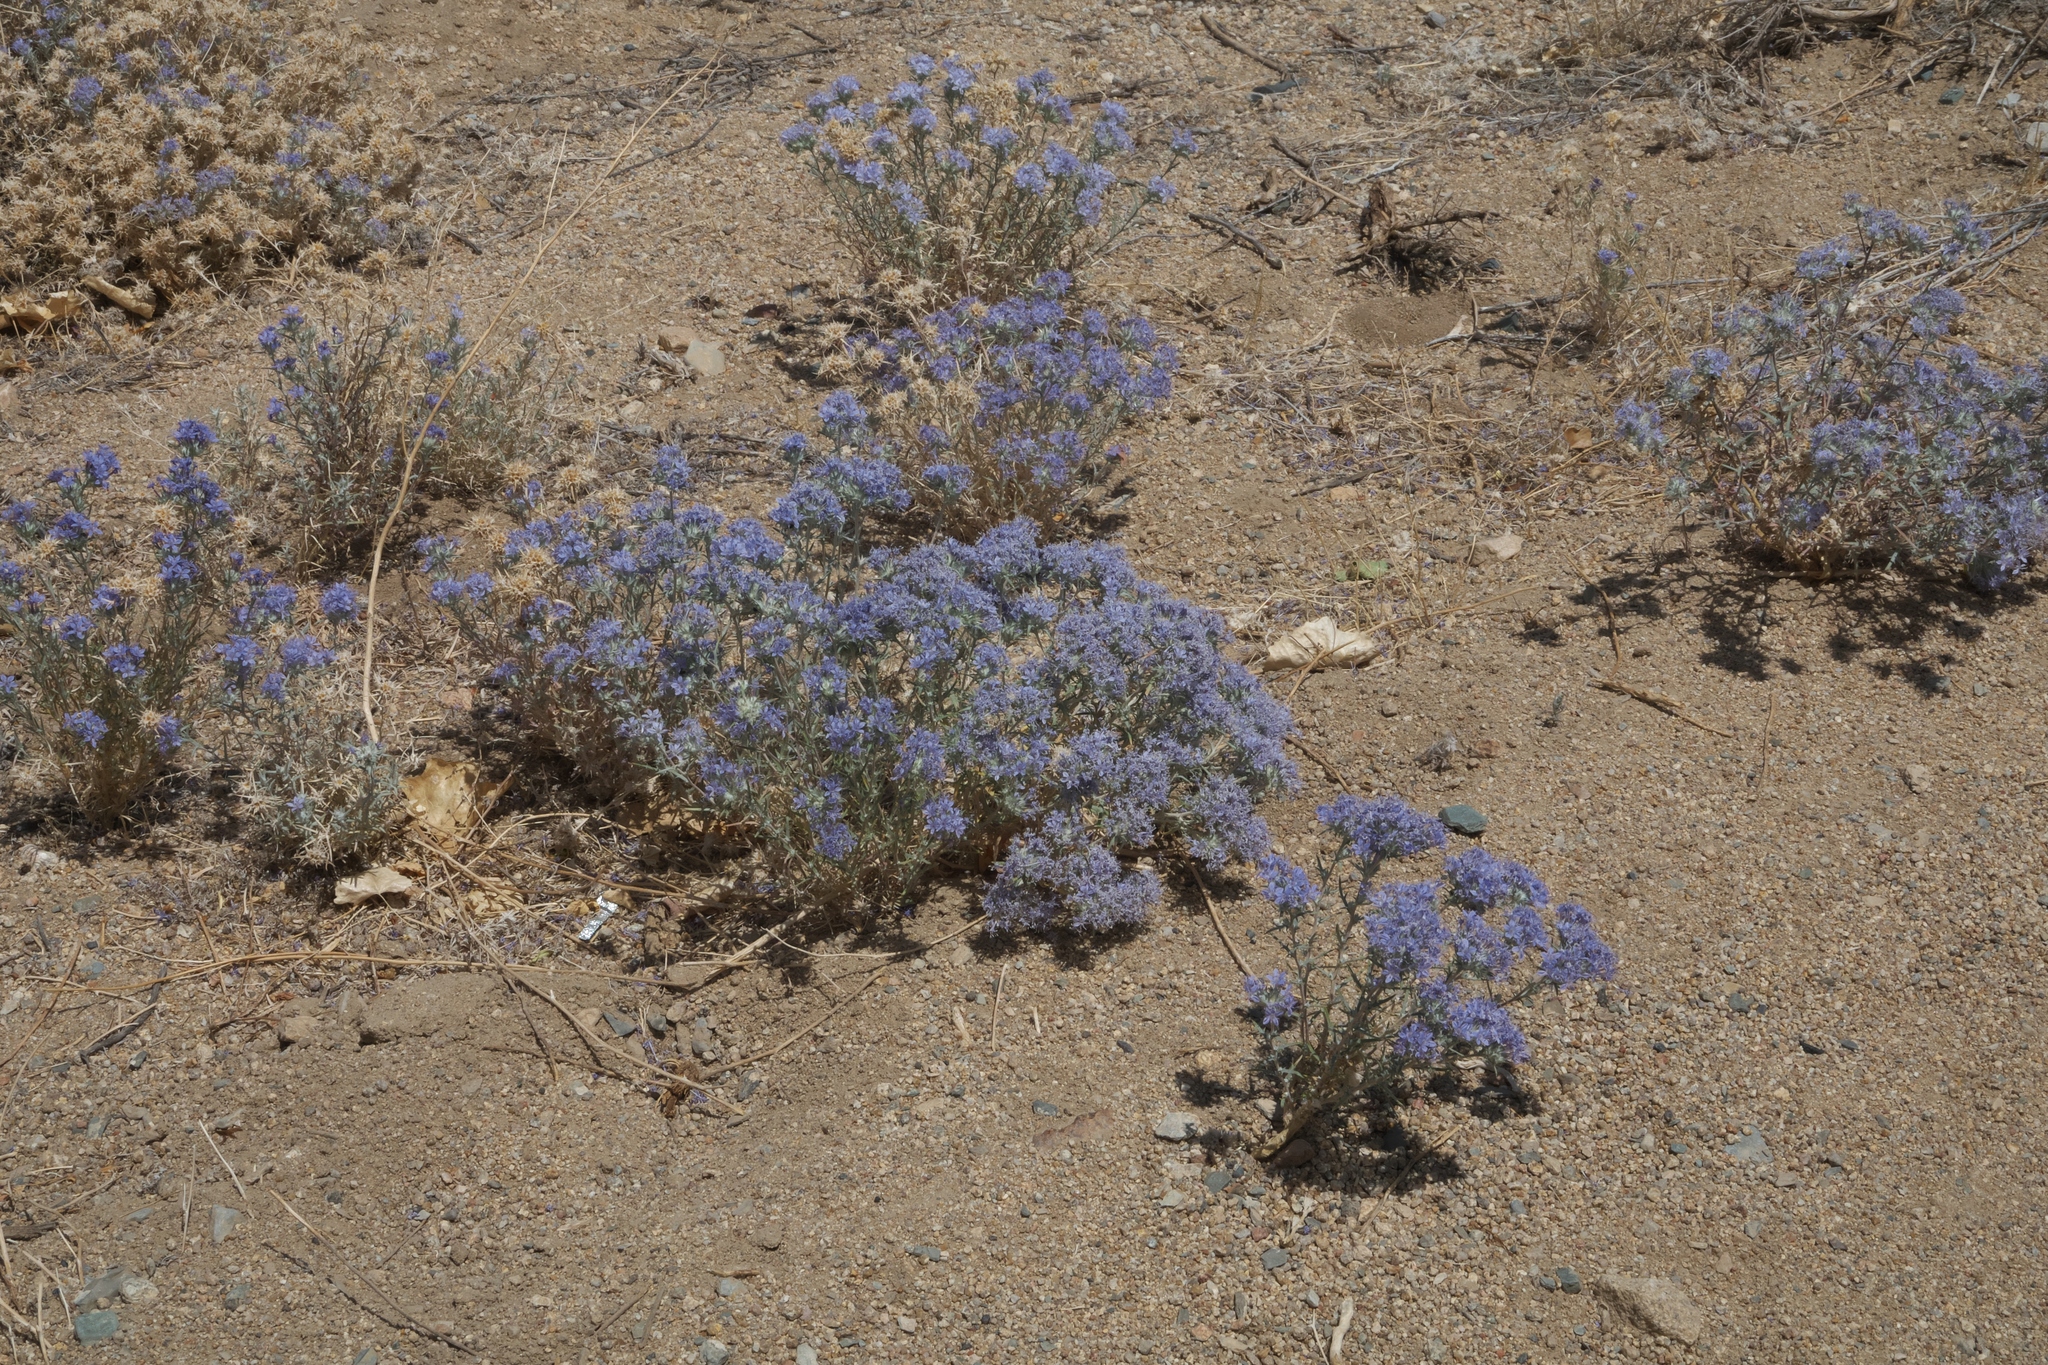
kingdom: Plantae
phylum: Tracheophyta
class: Magnoliopsida
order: Ericales
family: Polemoniaceae
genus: Eriastrum
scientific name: Eriastrum densifolium
